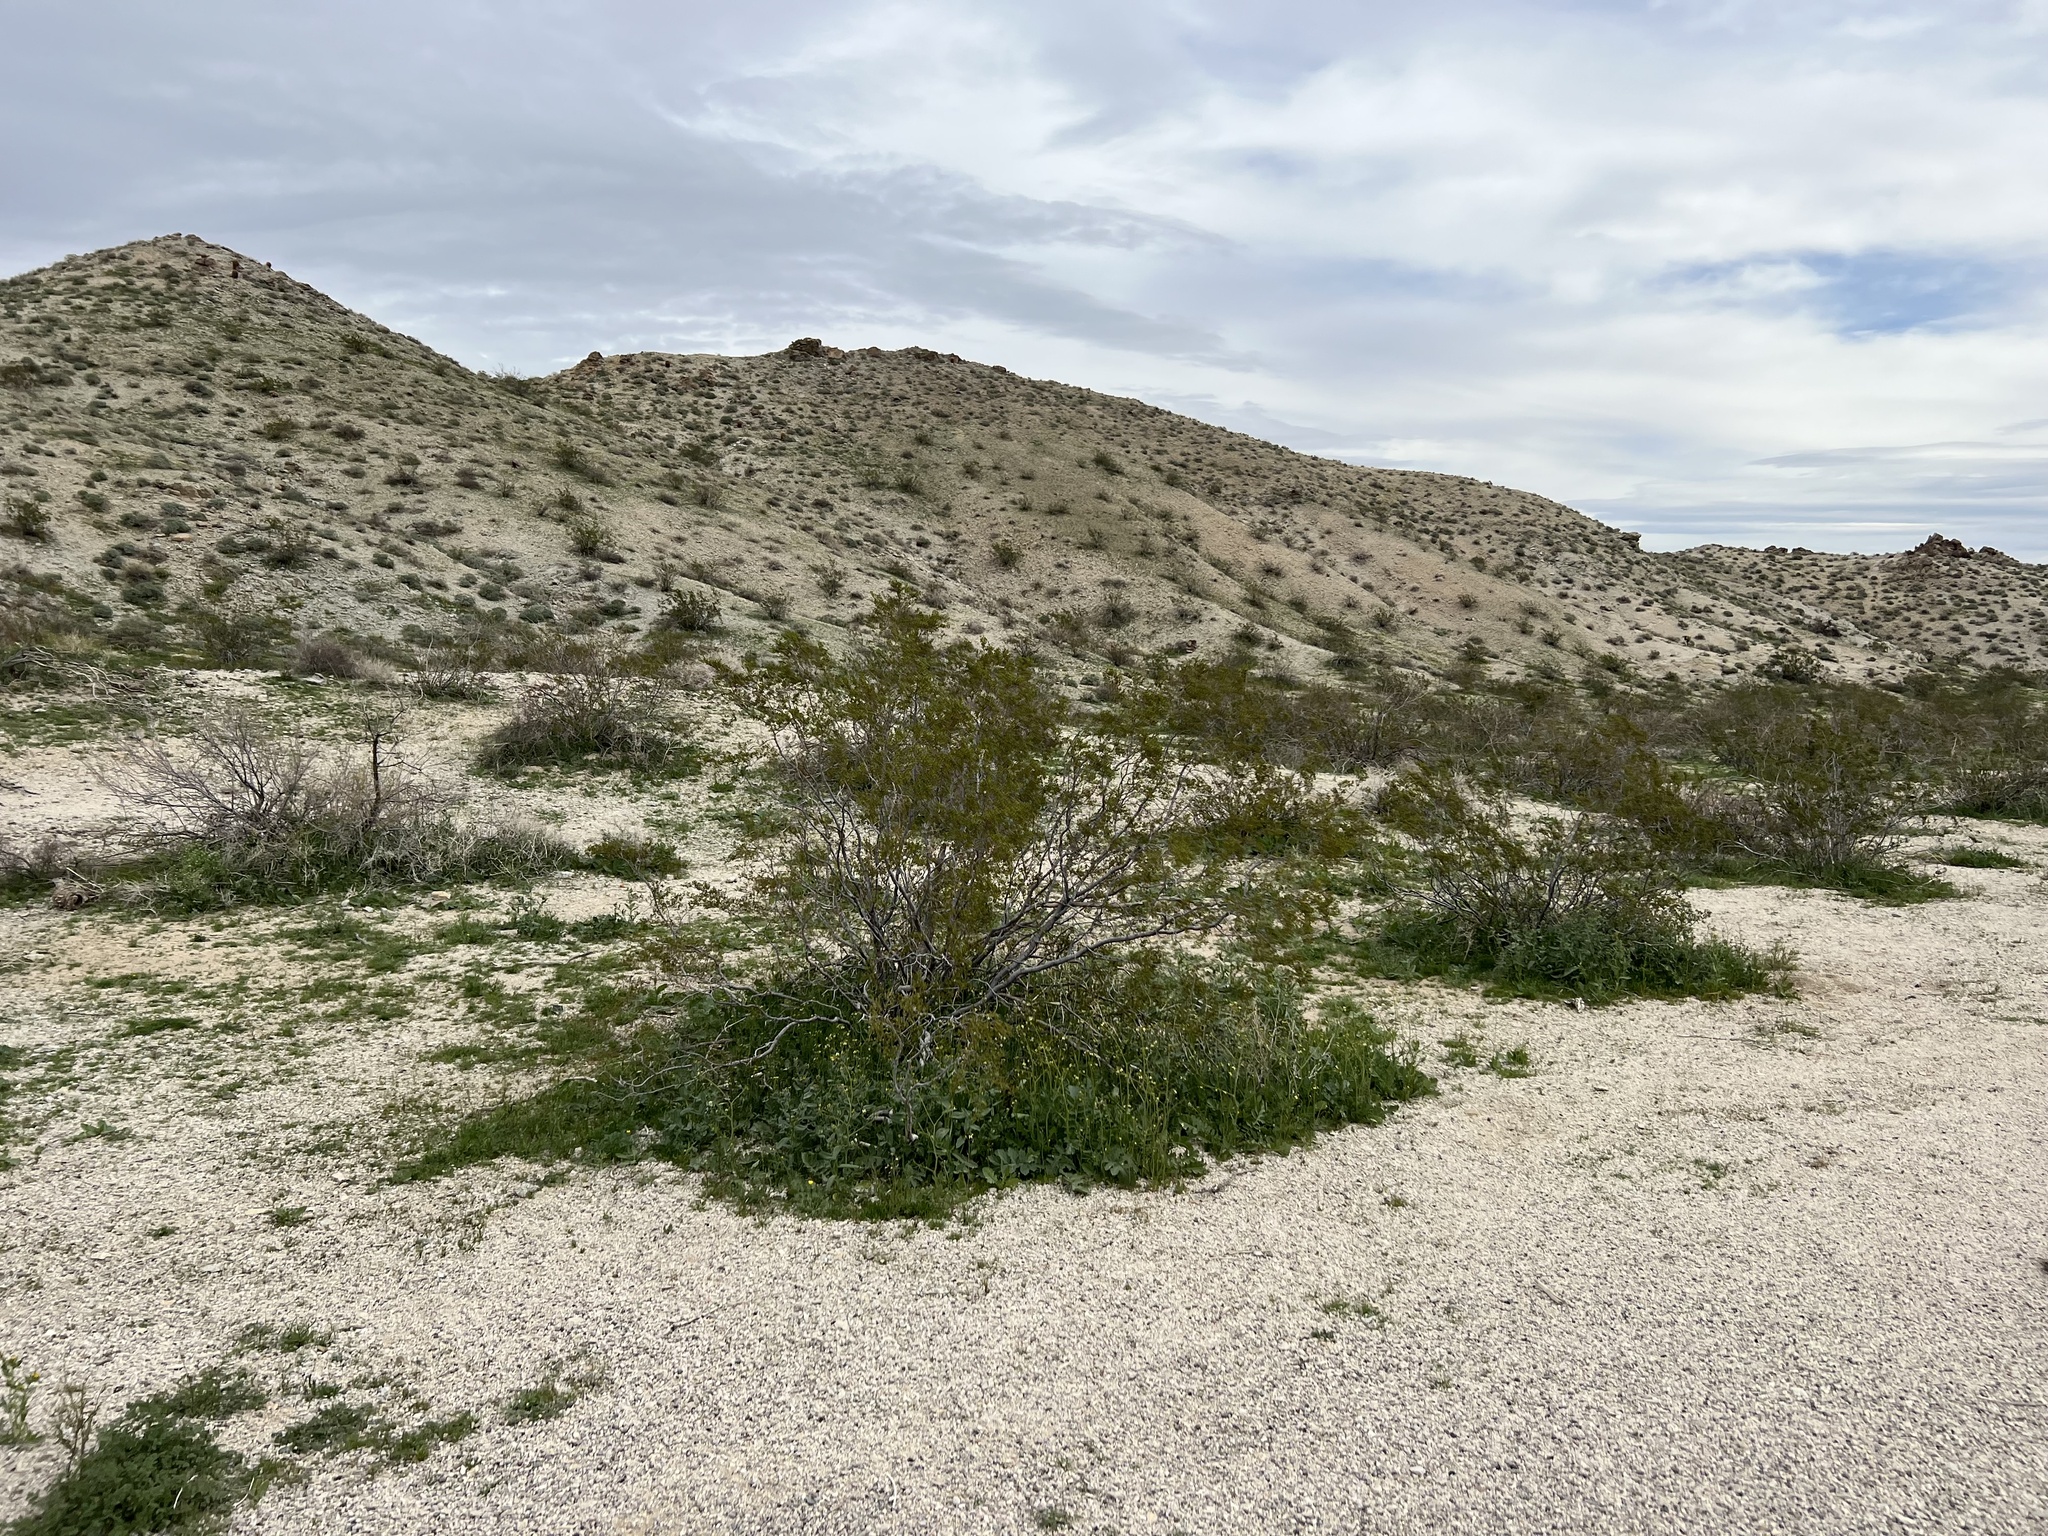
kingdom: Plantae
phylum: Tracheophyta
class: Magnoliopsida
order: Zygophyllales
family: Zygophyllaceae
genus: Larrea
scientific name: Larrea tridentata
